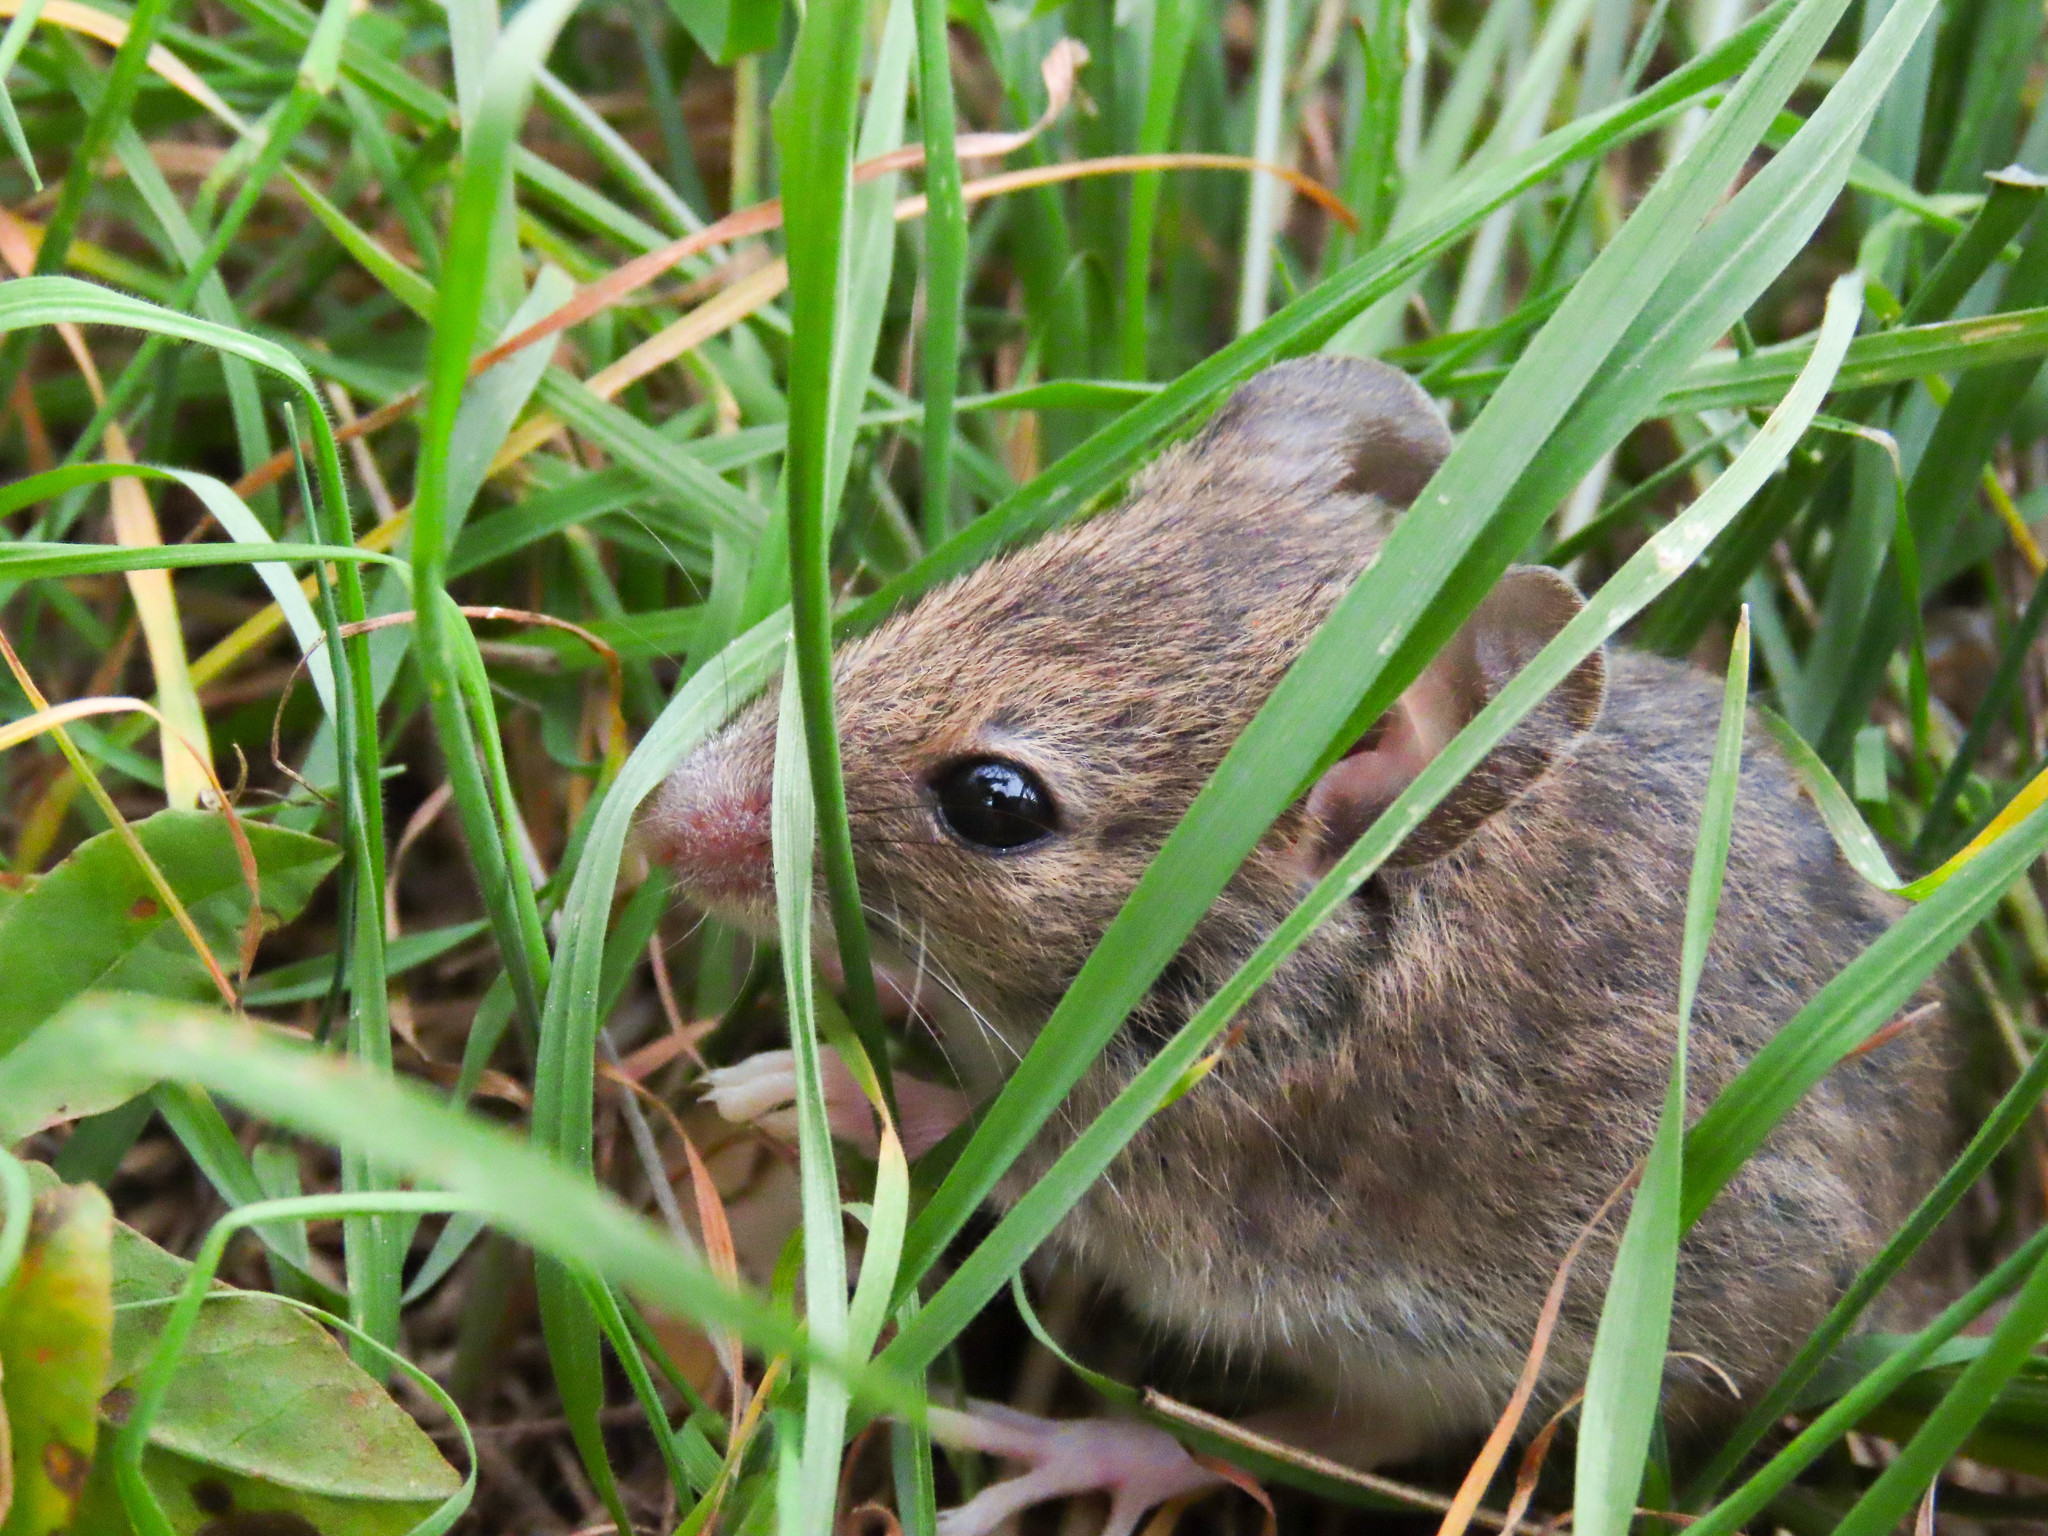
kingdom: Animalia
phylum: Chordata
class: Mammalia
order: Rodentia
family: Muridae
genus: Apodemus
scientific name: Apodemus sylvaticus
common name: Wood mouse
